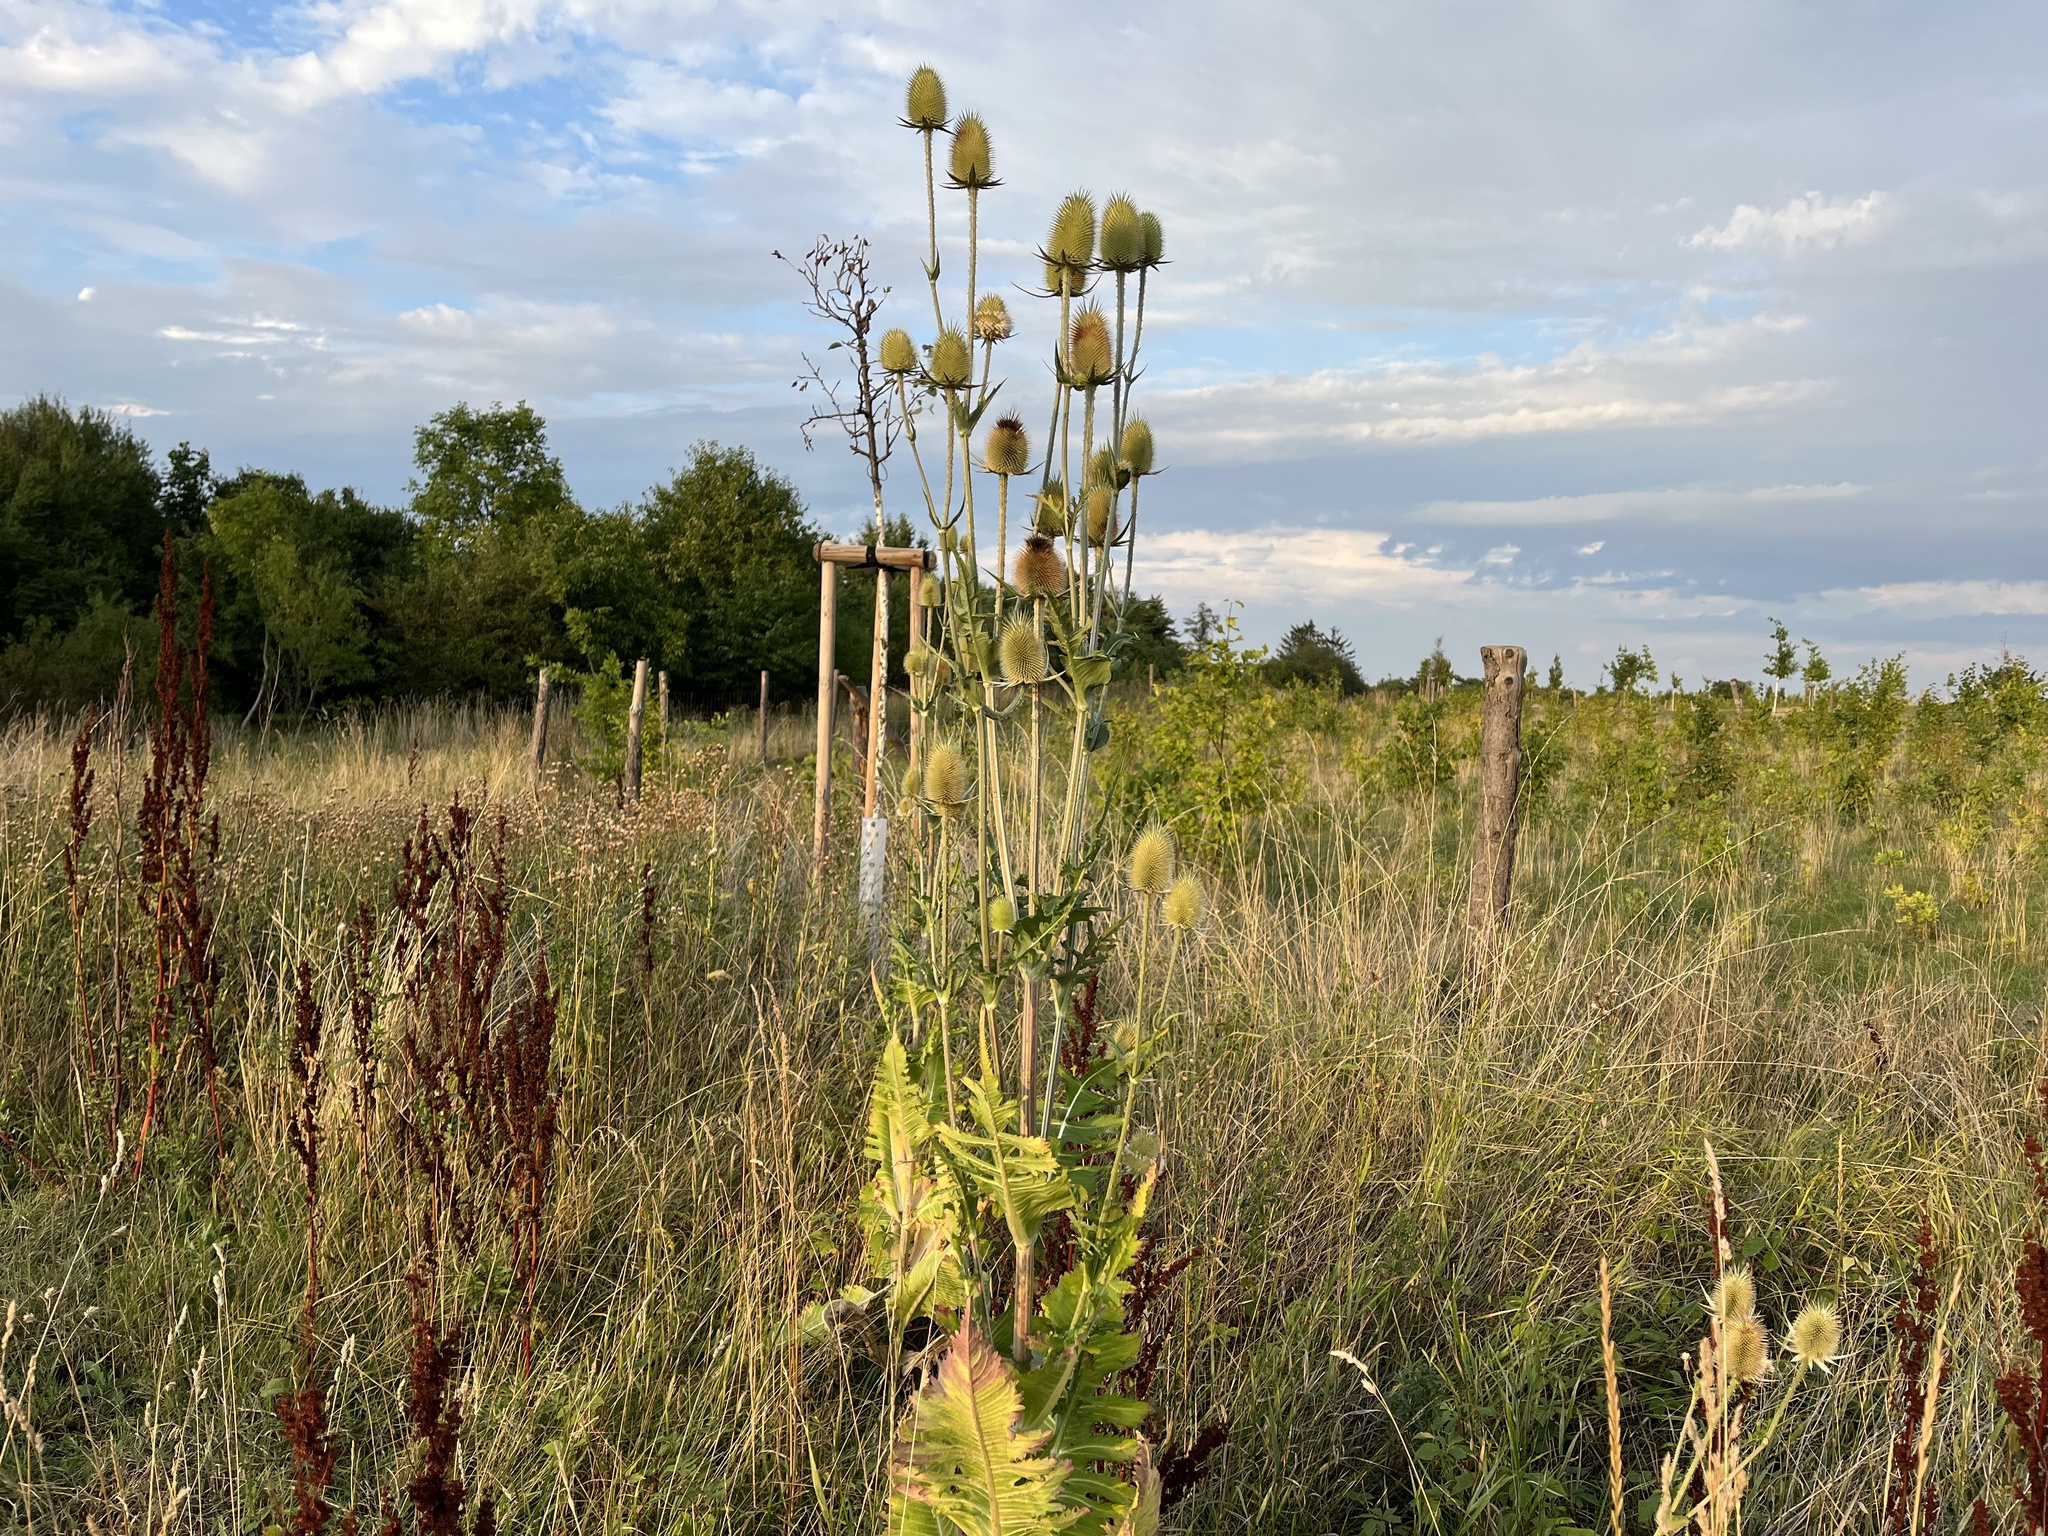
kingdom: Plantae
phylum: Tracheophyta
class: Magnoliopsida
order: Dipsacales
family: Caprifoliaceae
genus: Dipsacus
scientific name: Dipsacus laciniatus
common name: Cut-leaved teasel
